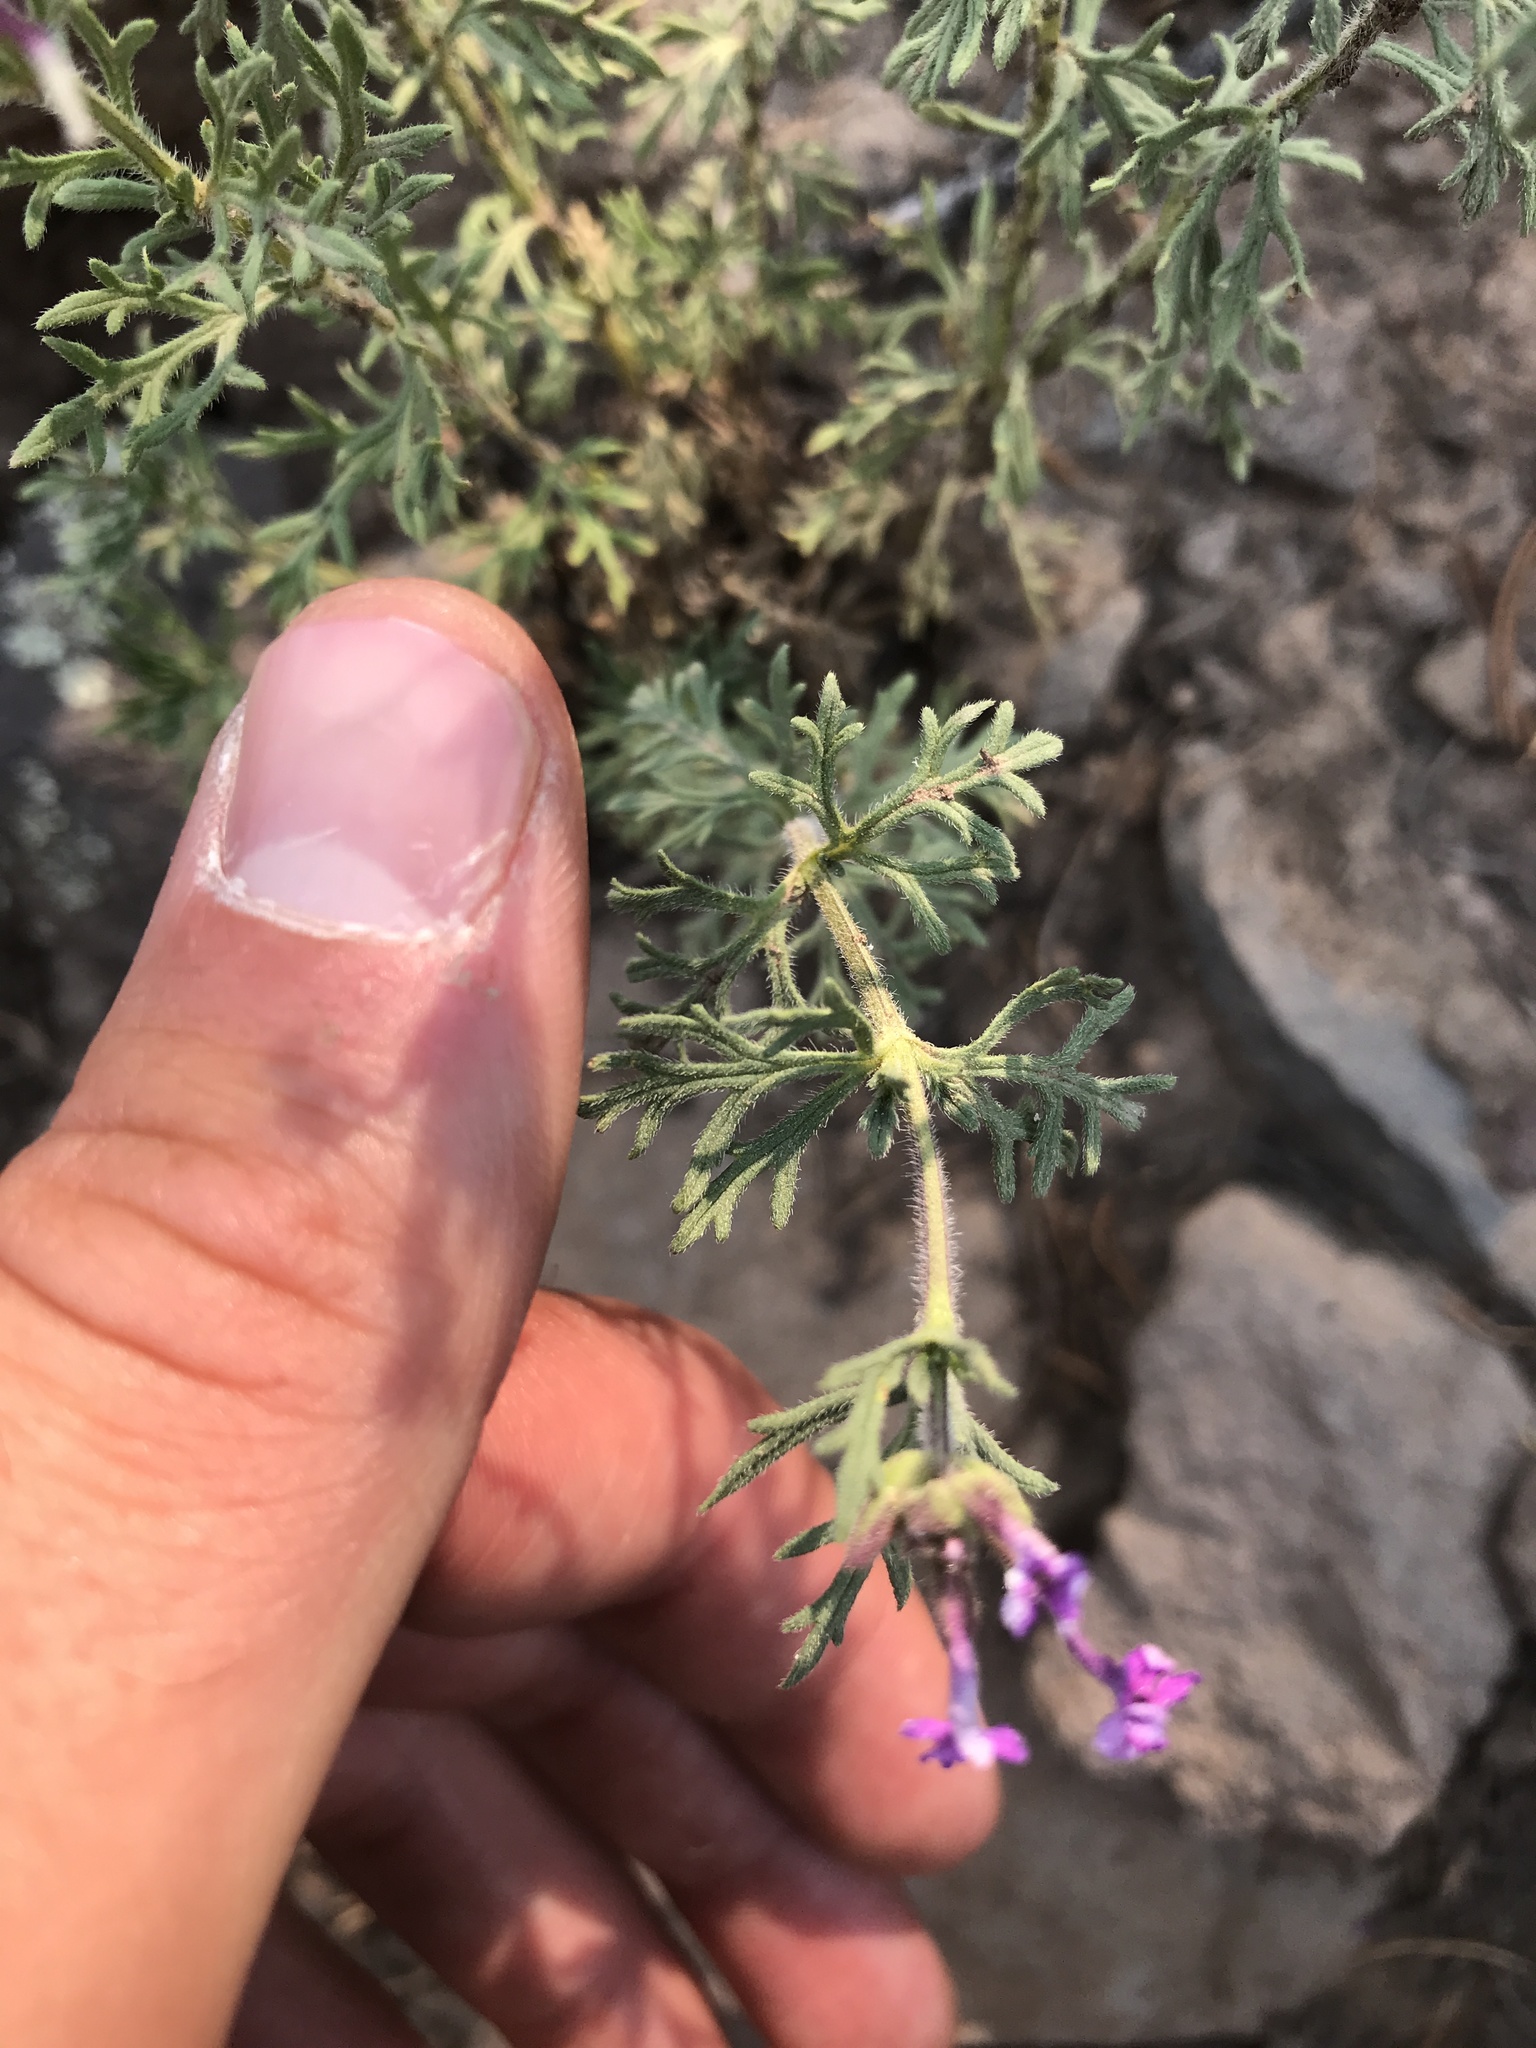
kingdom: Plantae
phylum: Tracheophyta
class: Magnoliopsida
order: Lamiales
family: Verbenaceae
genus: Verbena
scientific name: Verbena bipinnatifida
